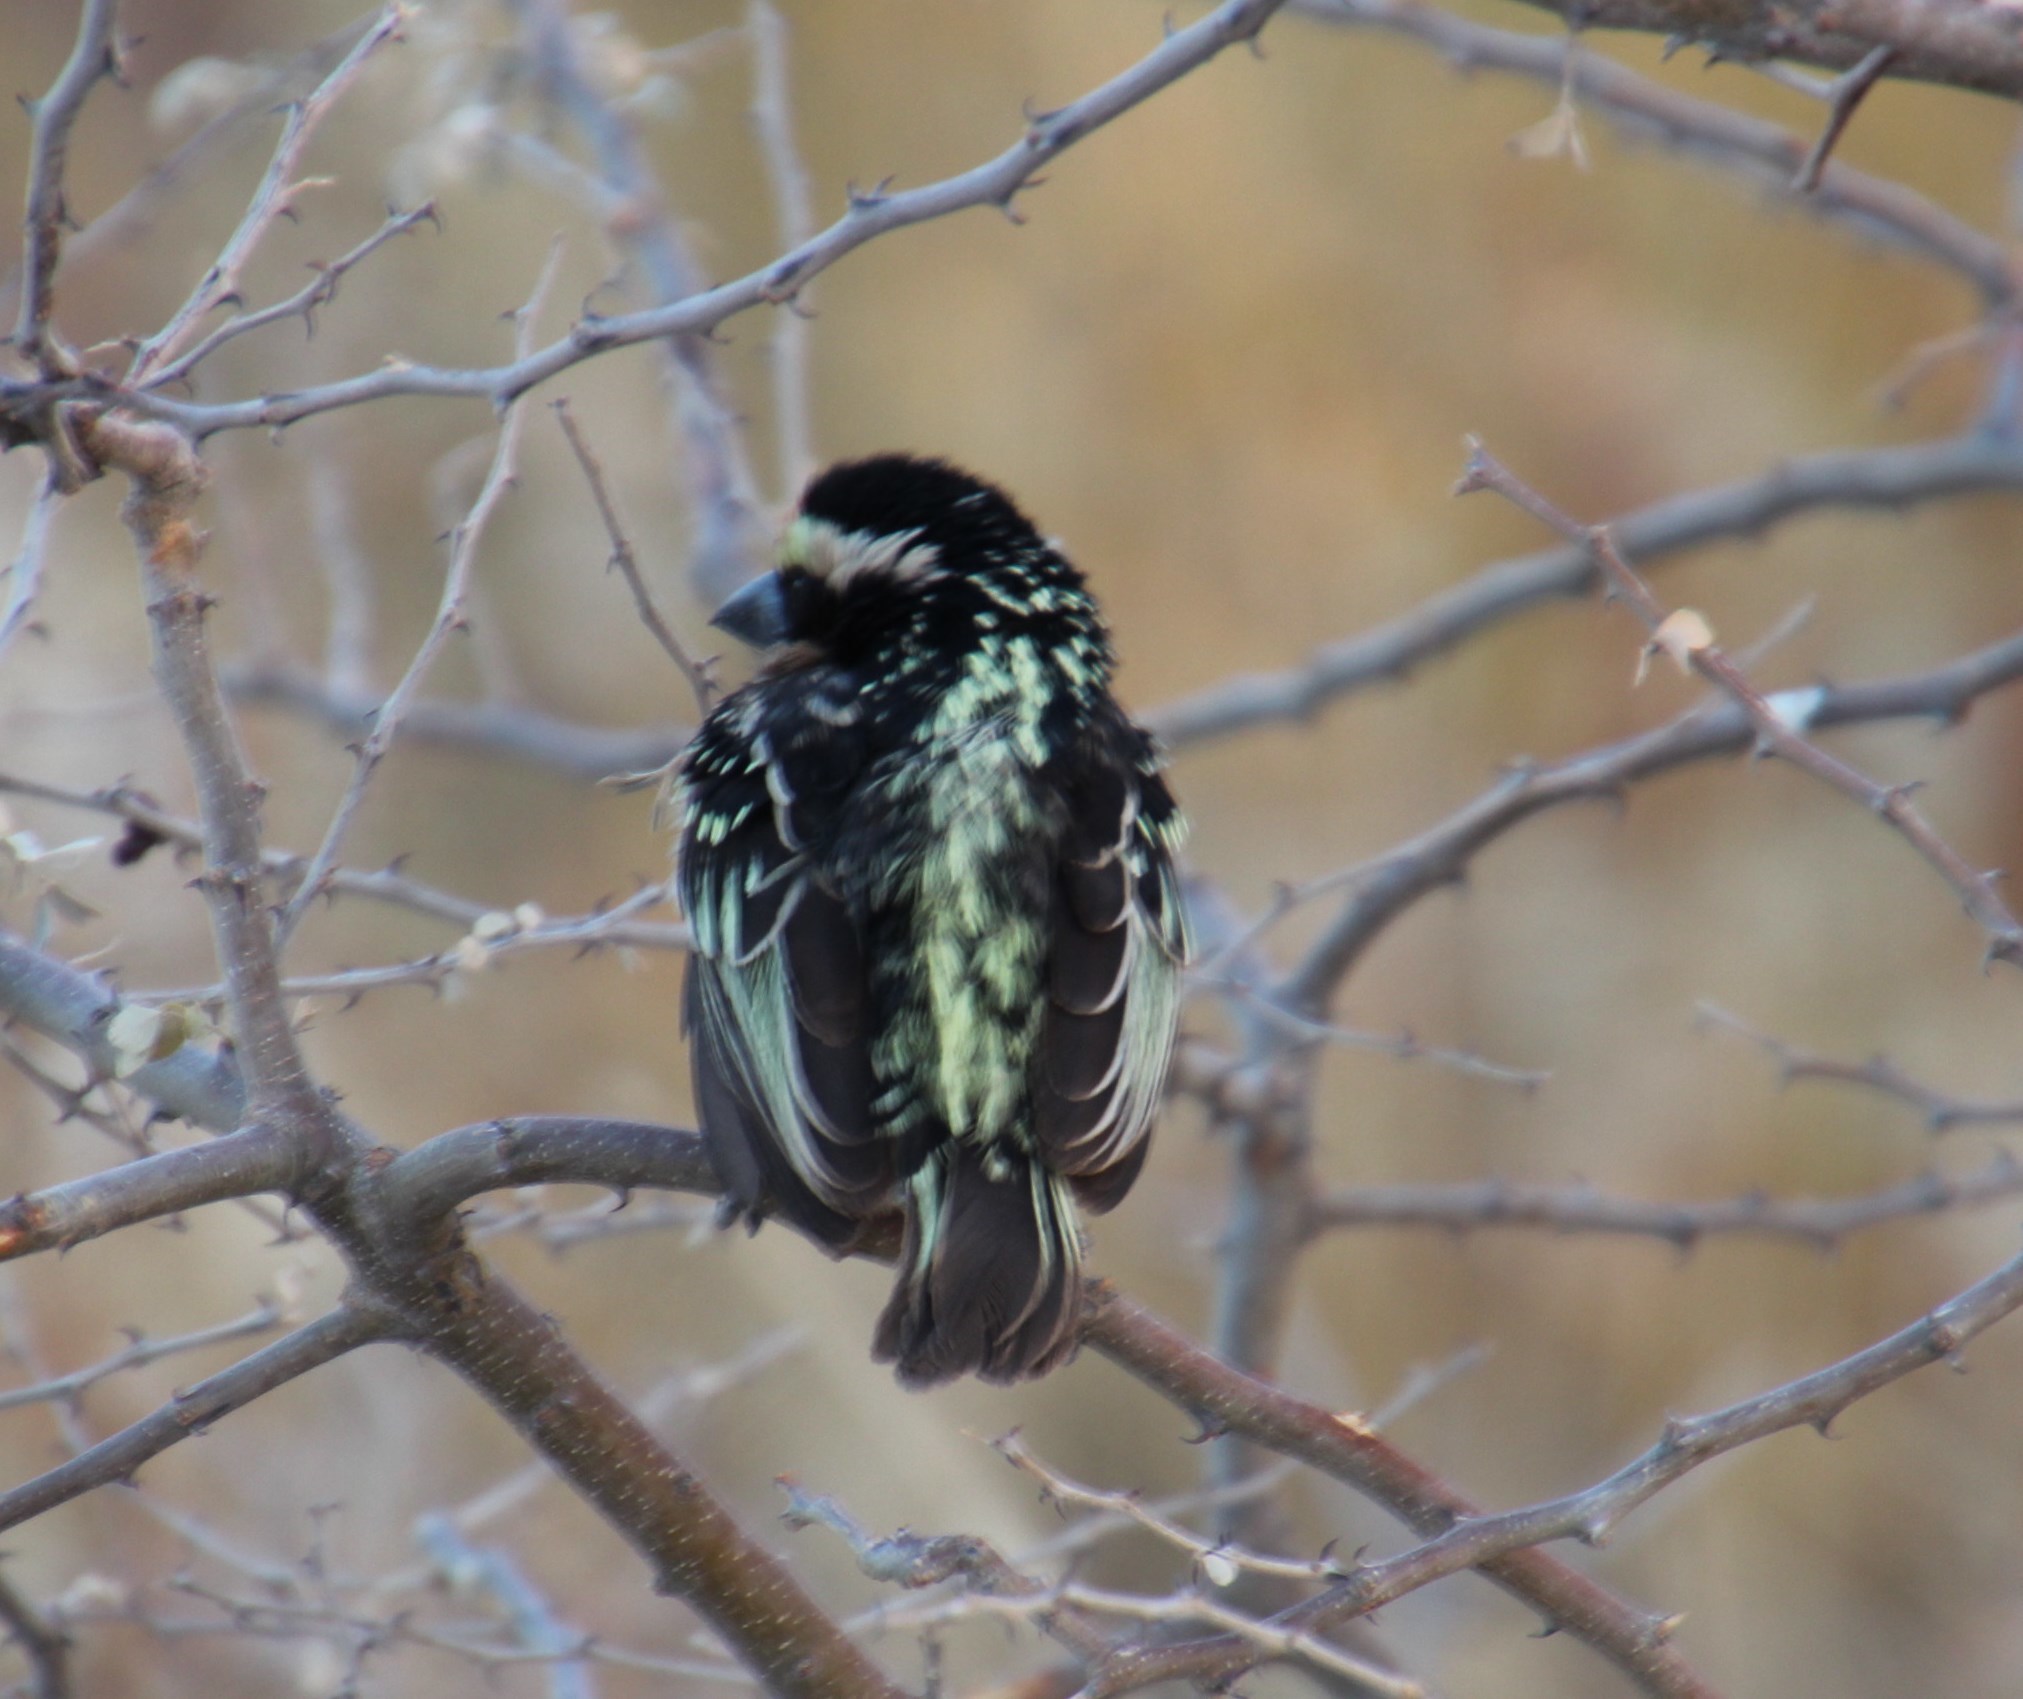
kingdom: Animalia
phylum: Chordata
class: Aves
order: Piciformes
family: Lybiidae
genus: Tricholaema
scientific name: Tricholaema leucomelas
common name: Acacia pied barbet
